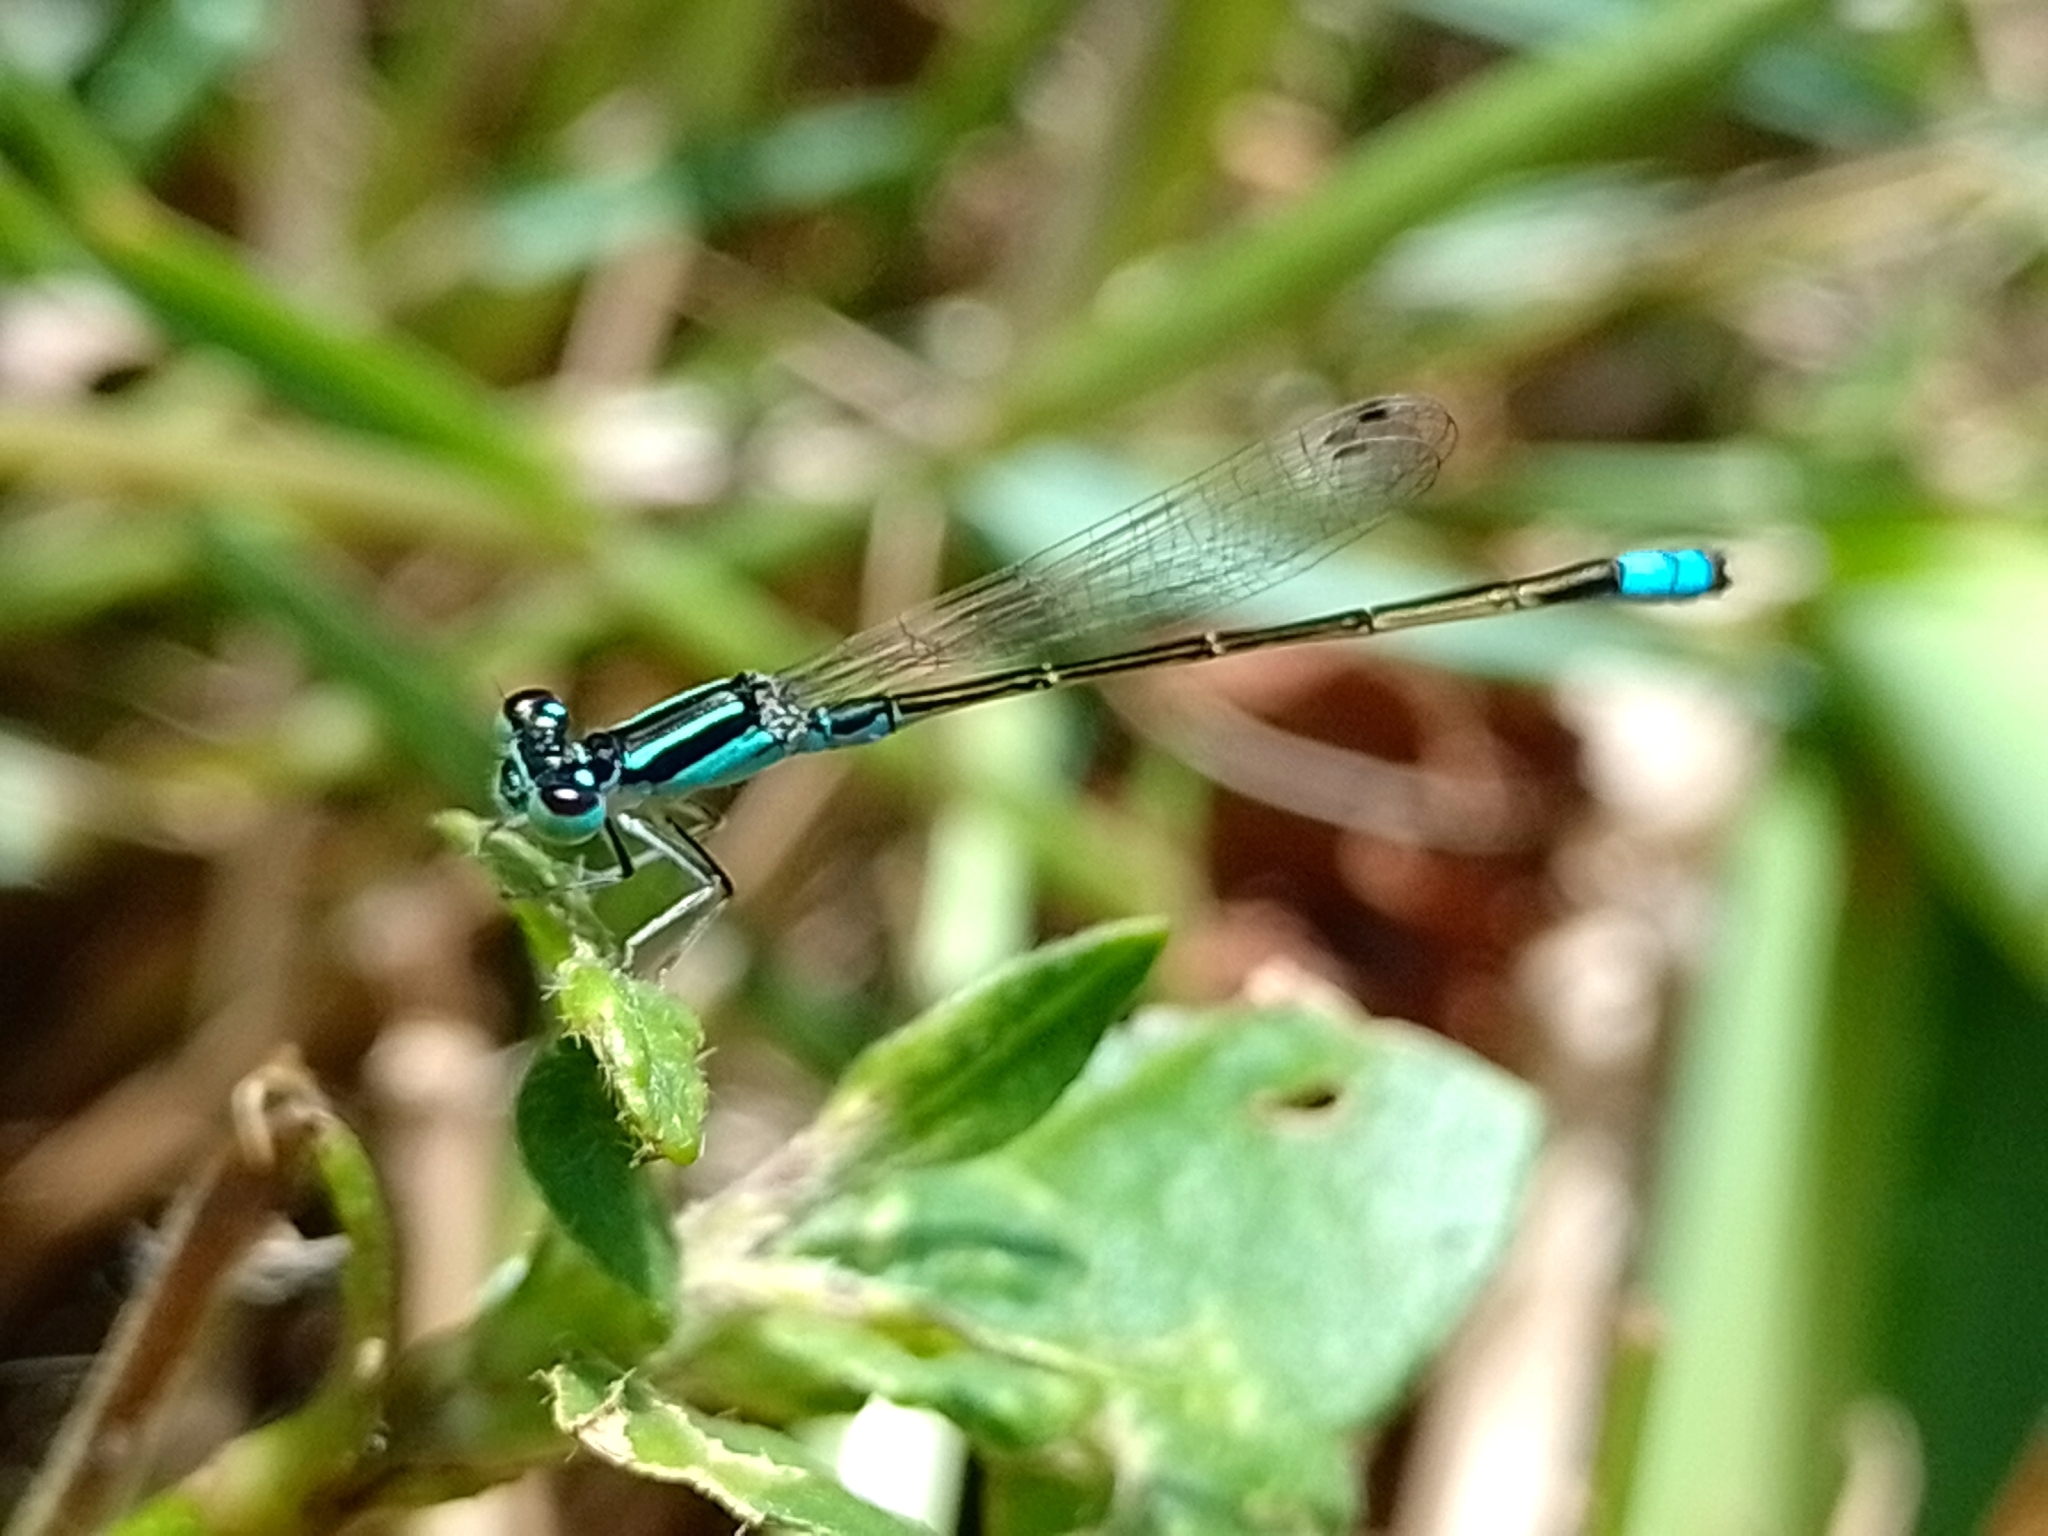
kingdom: Animalia
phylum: Arthropoda
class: Insecta
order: Odonata
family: Coenagrionidae
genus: Ischnura
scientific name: Ischnura fluviatilis
